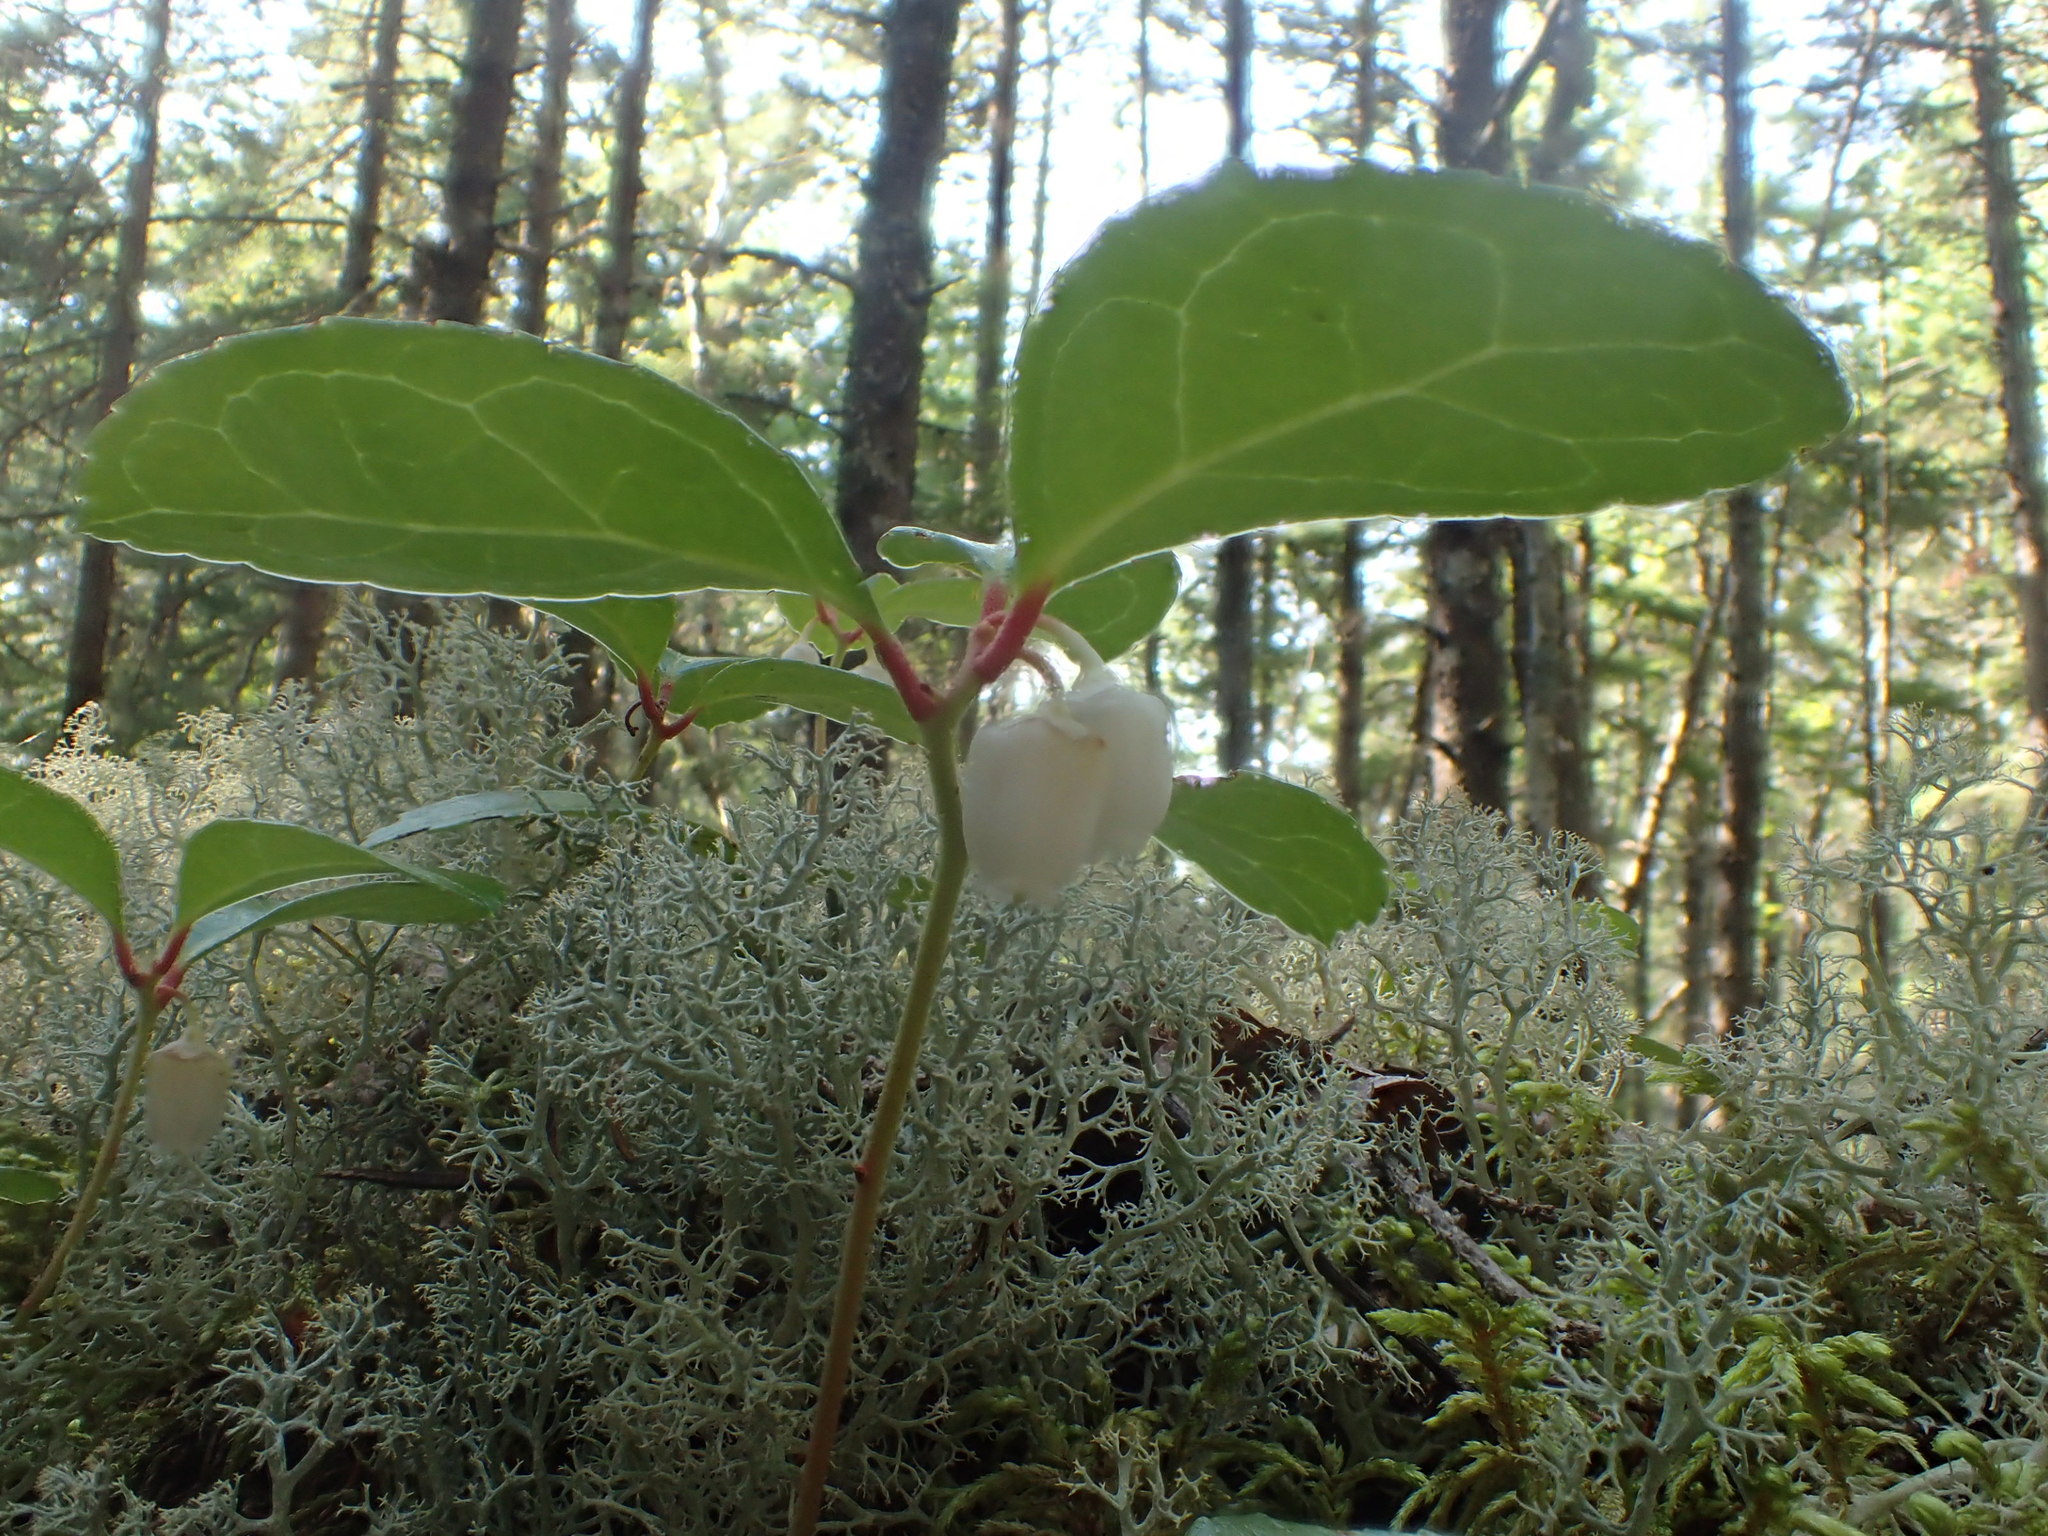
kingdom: Plantae
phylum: Tracheophyta
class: Magnoliopsida
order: Ericales
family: Ericaceae
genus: Gaultheria
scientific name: Gaultheria procumbens
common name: Checkerberry
